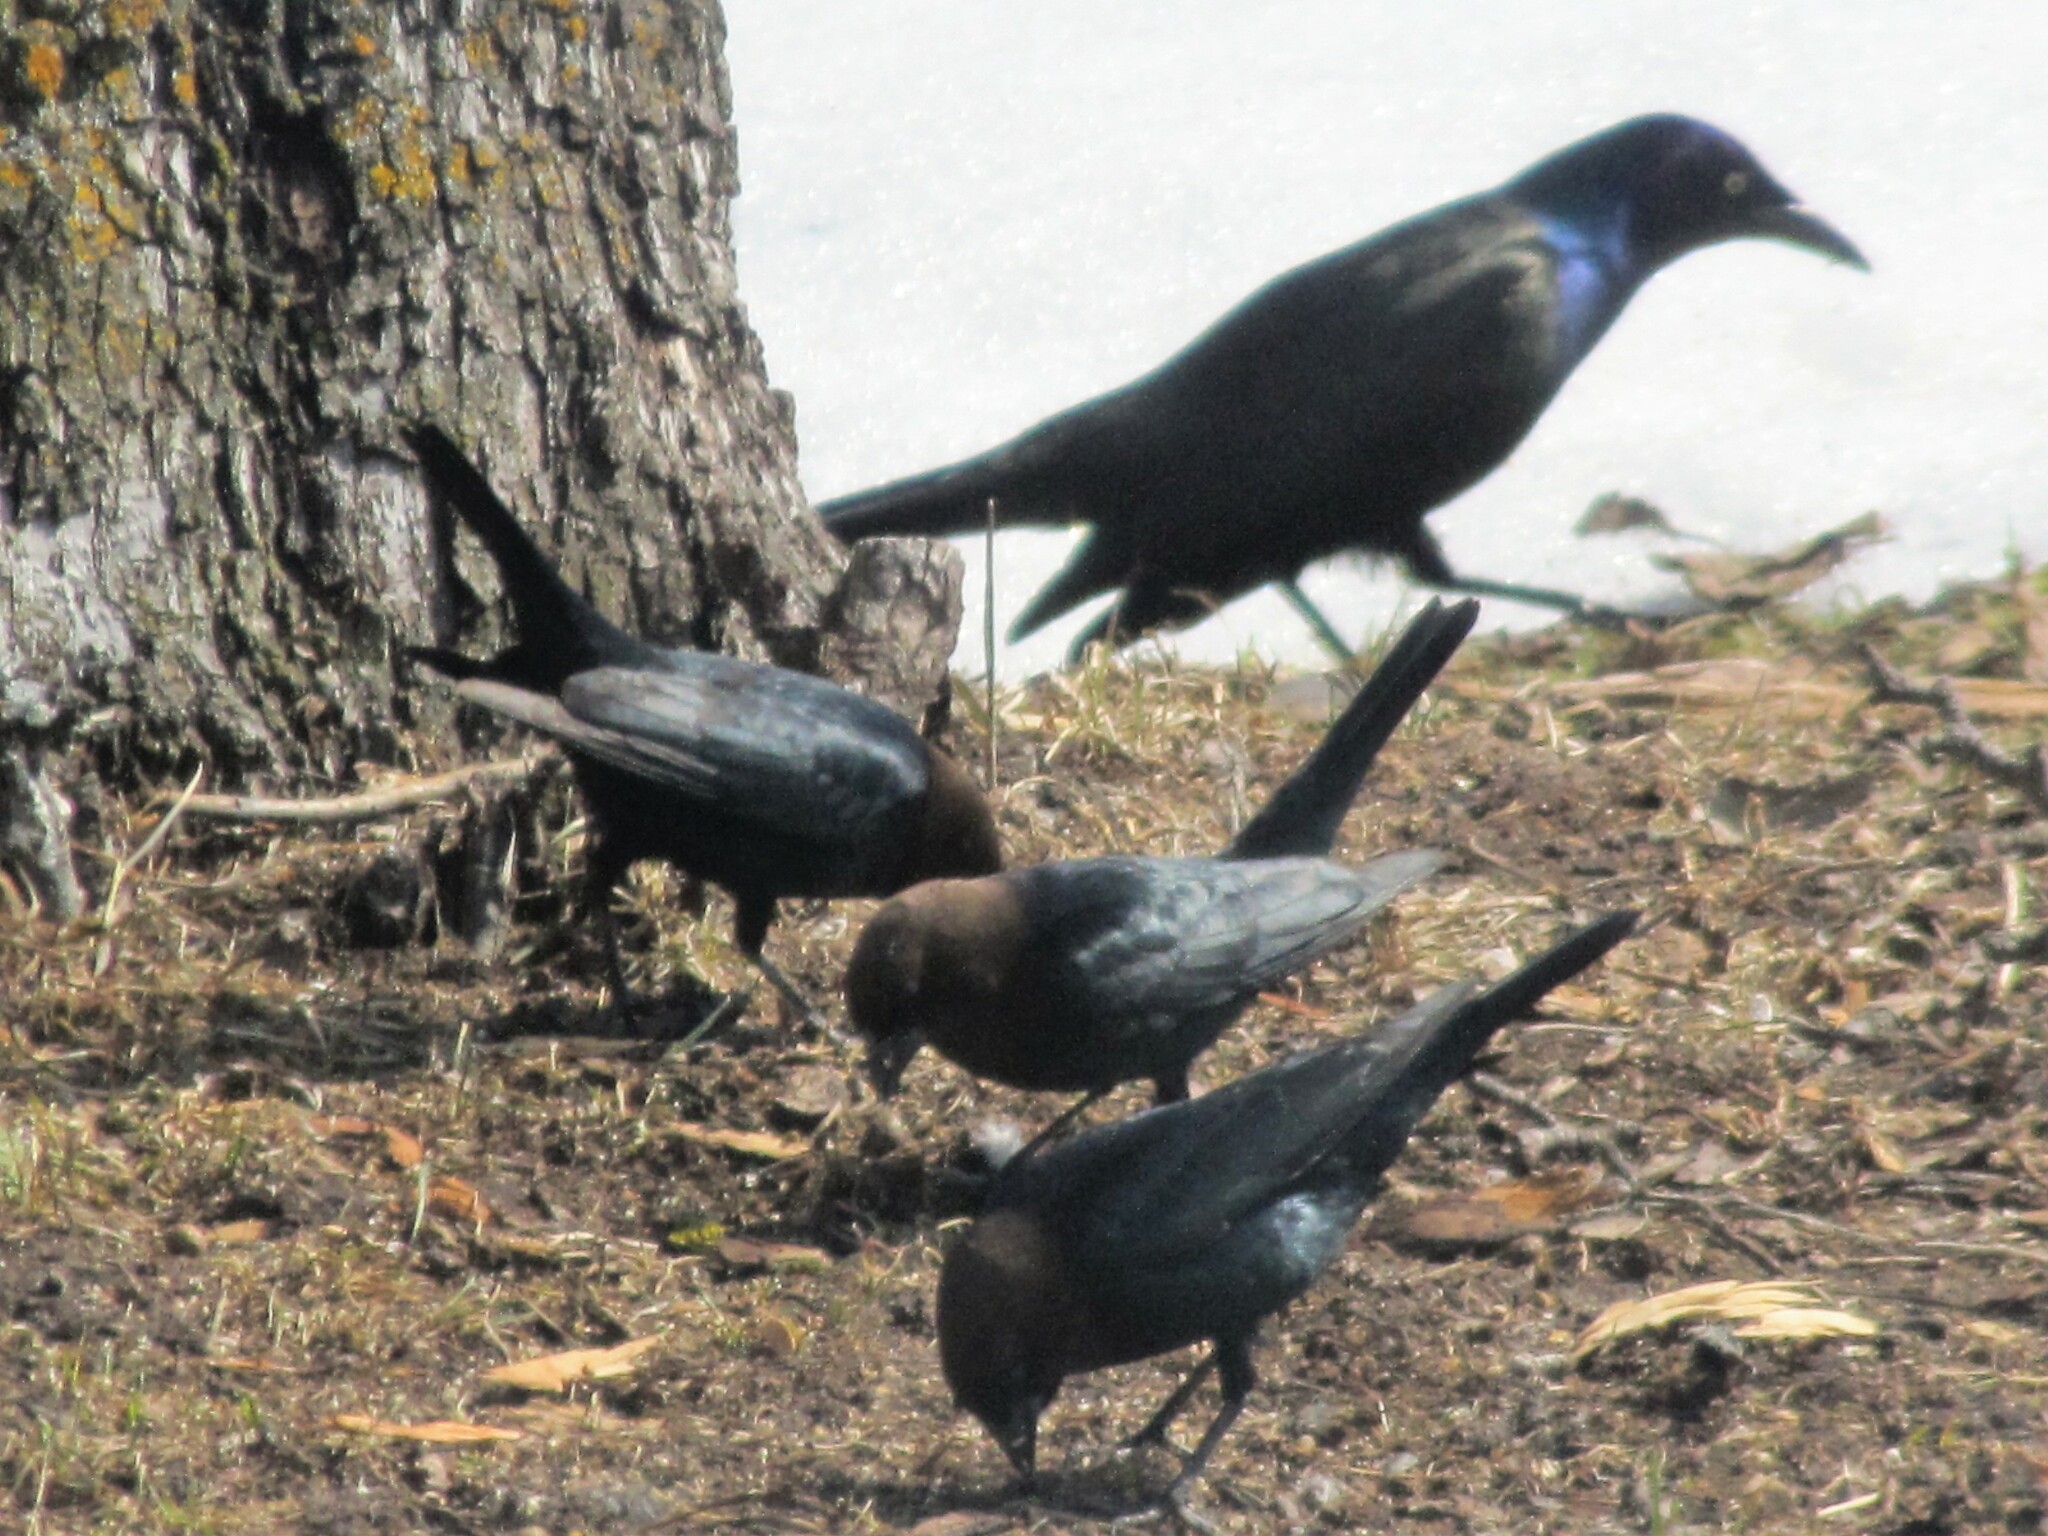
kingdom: Animalia
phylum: Chordata
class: Aves
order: Passeriformes
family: Icteridae
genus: Molothrus
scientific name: Molothrus ater
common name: Brown-headed cowbird
